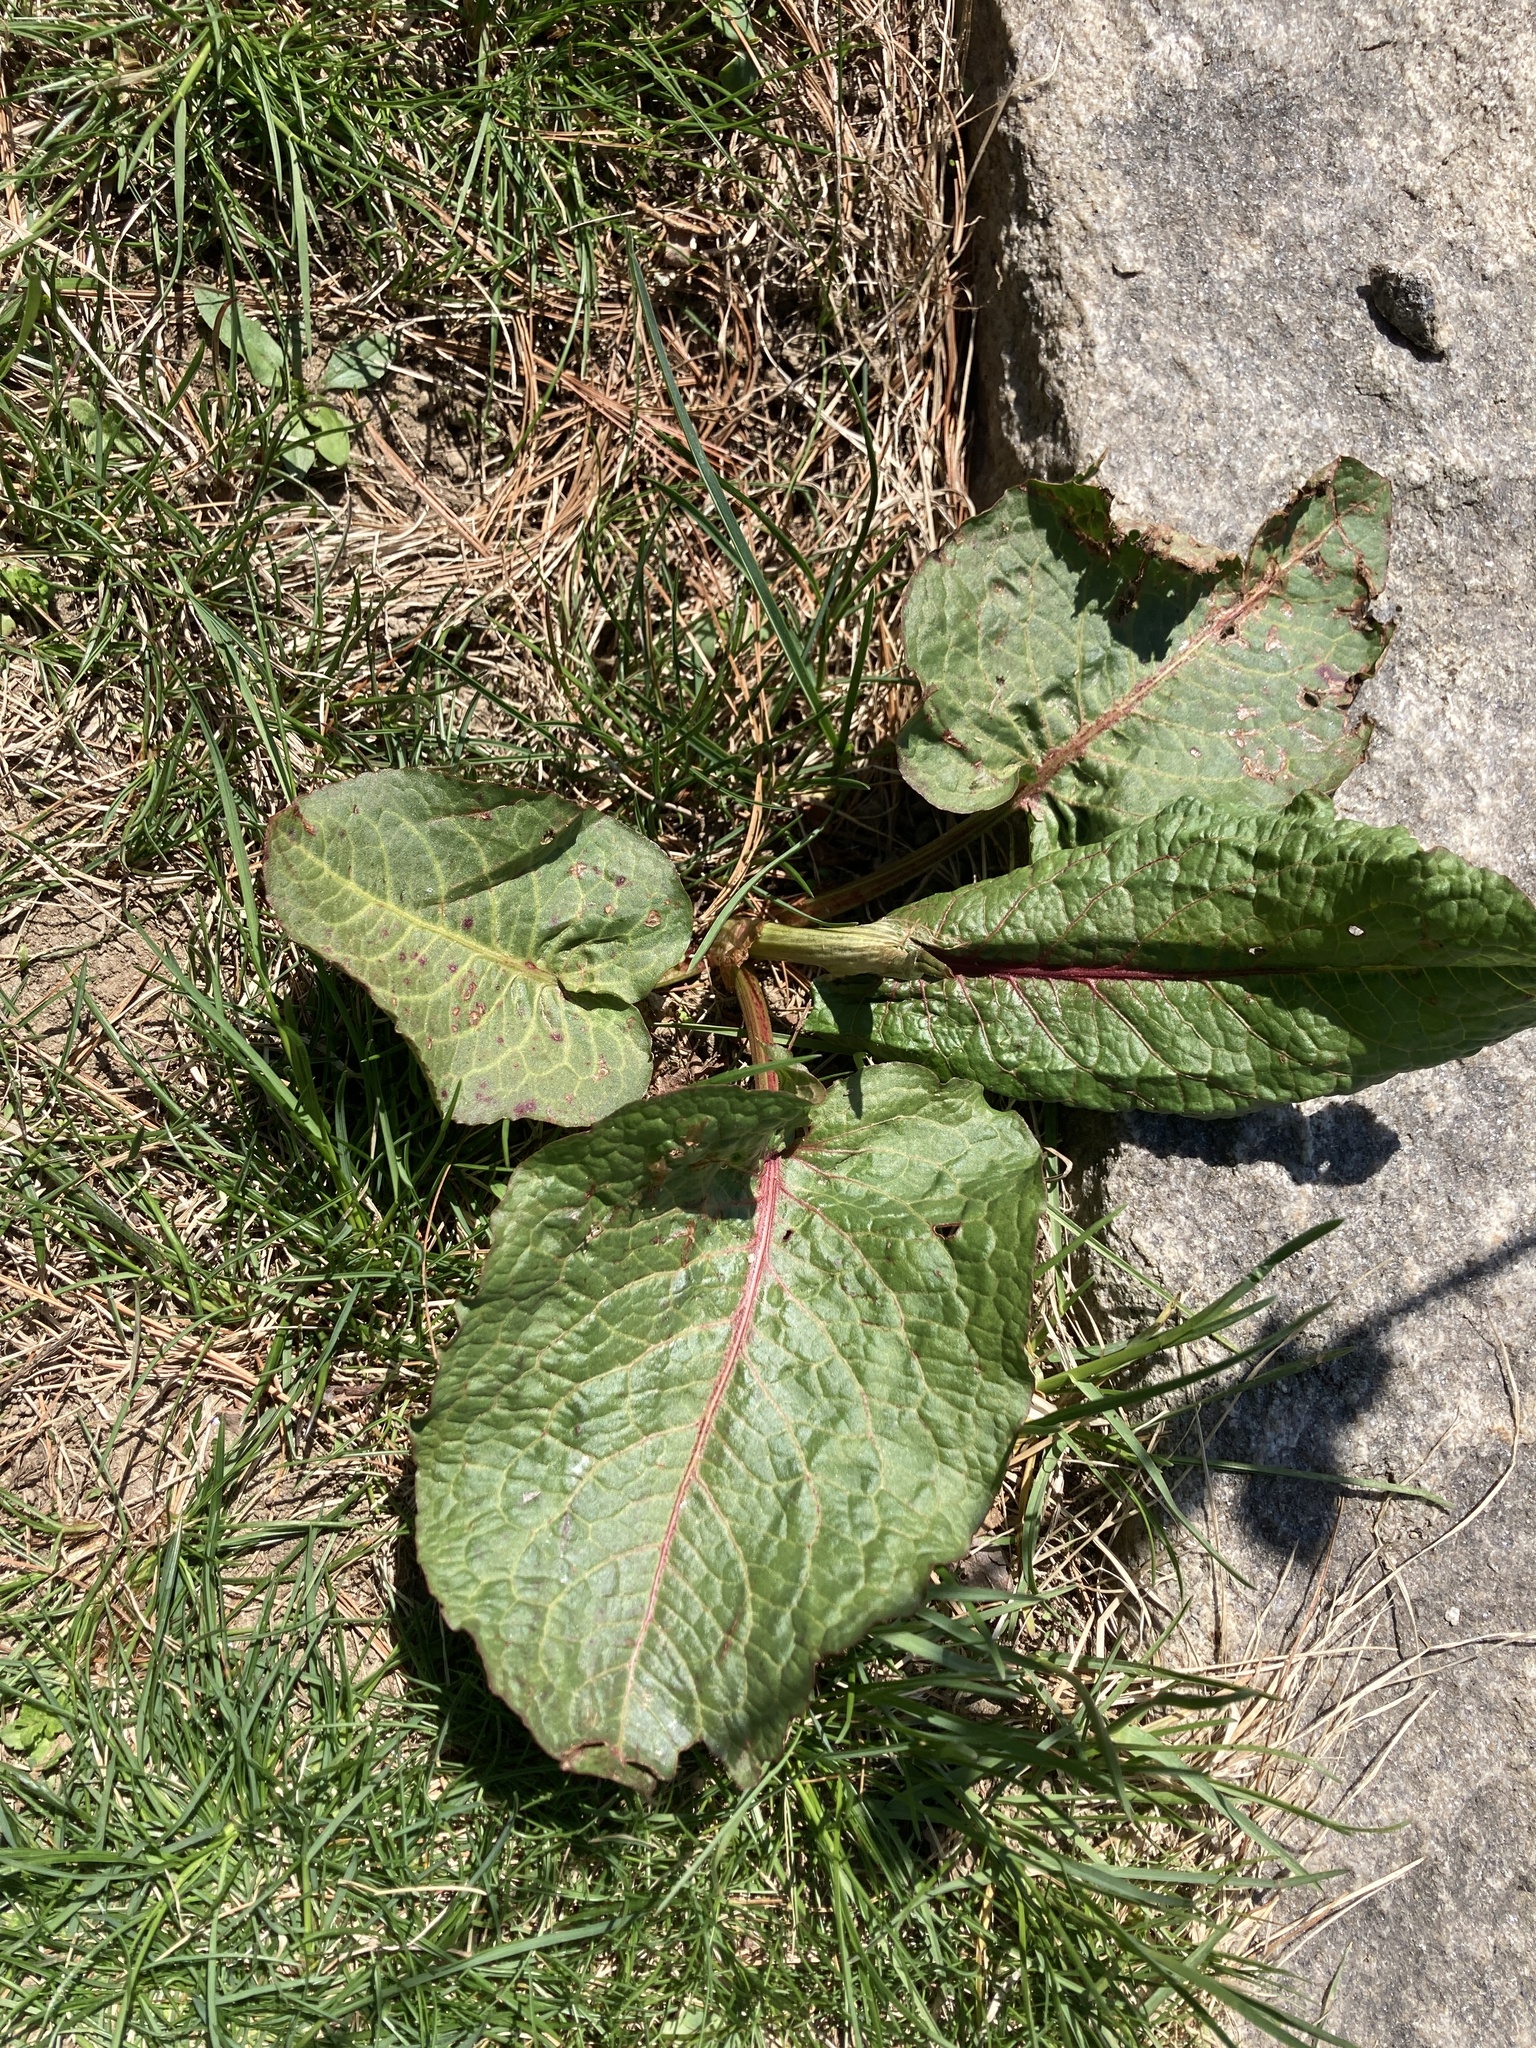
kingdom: Plantae
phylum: Tracheophyta
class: Magnoliopsida
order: Caryophyllales
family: Polygonaceae
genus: Rumex
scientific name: Rumex obtusifolius
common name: Bitter dock
